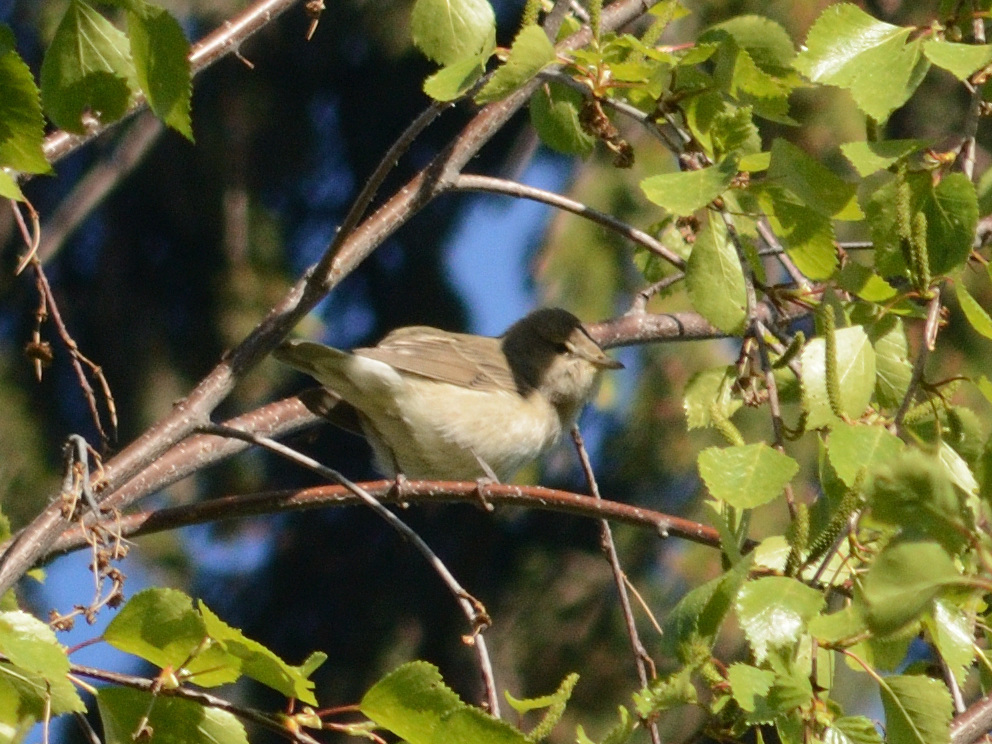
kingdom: Animalia
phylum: Chordata
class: Aves
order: Passeriformes
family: Sylviidae
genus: Sylvia
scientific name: Sylvia borin
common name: Garden warbler
